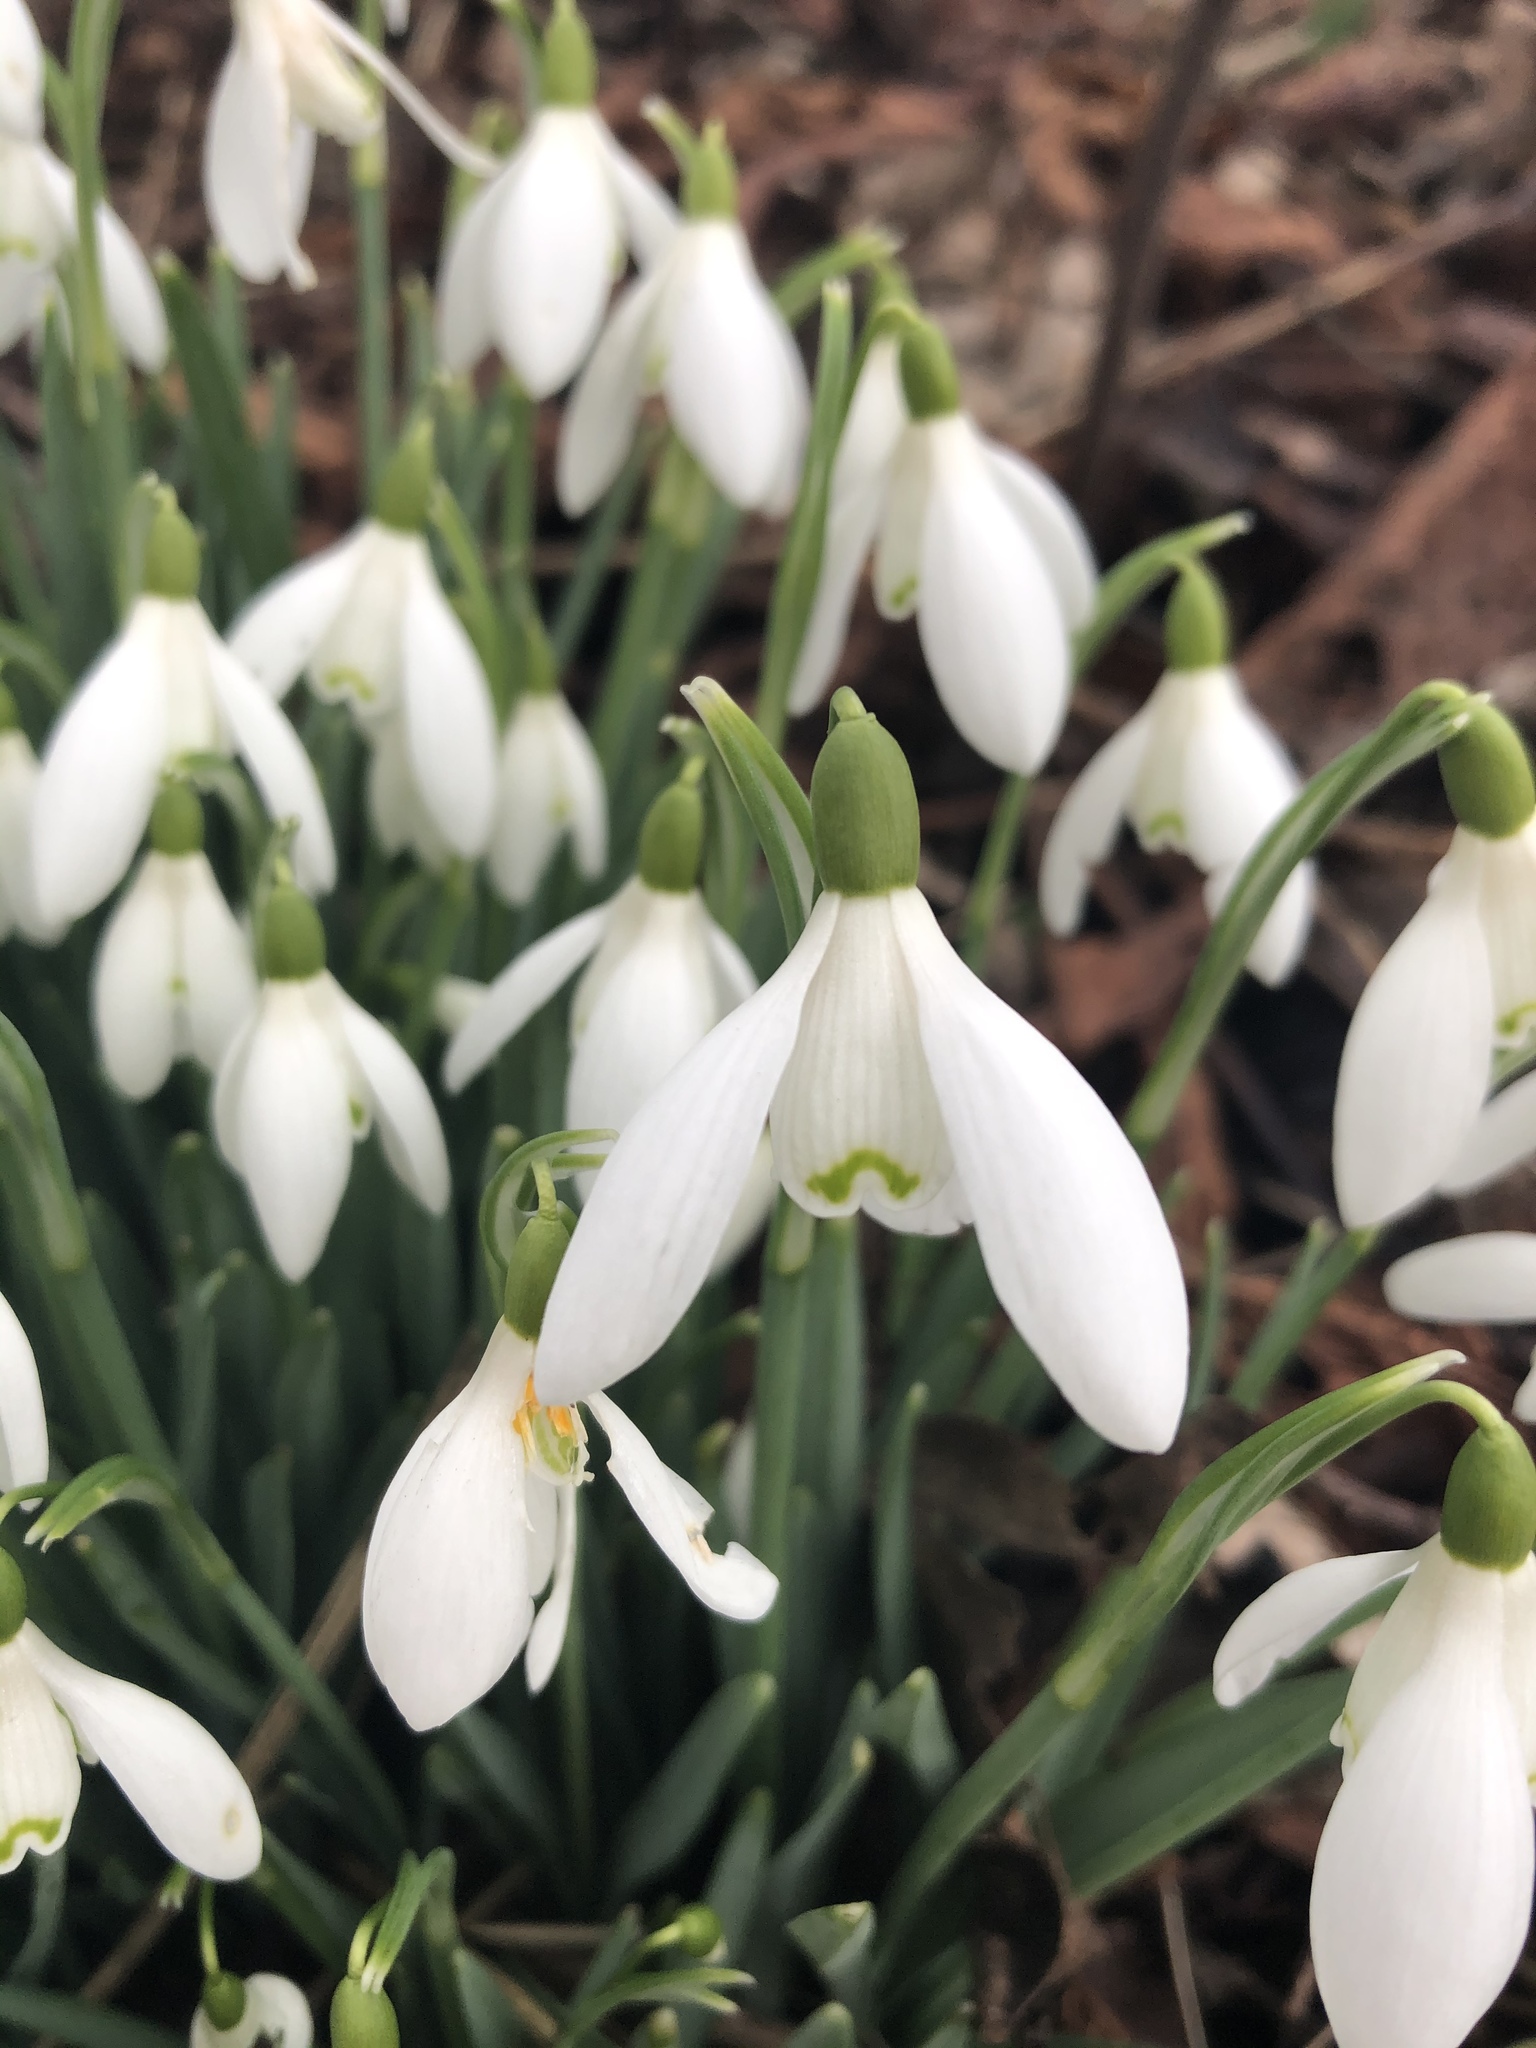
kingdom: Plantae
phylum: Tracheophyta
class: Liliopsida
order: Asparagales
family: Amaryllidaceae
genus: Galanthus
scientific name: Galanthus nivalis
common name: Snowdrop
